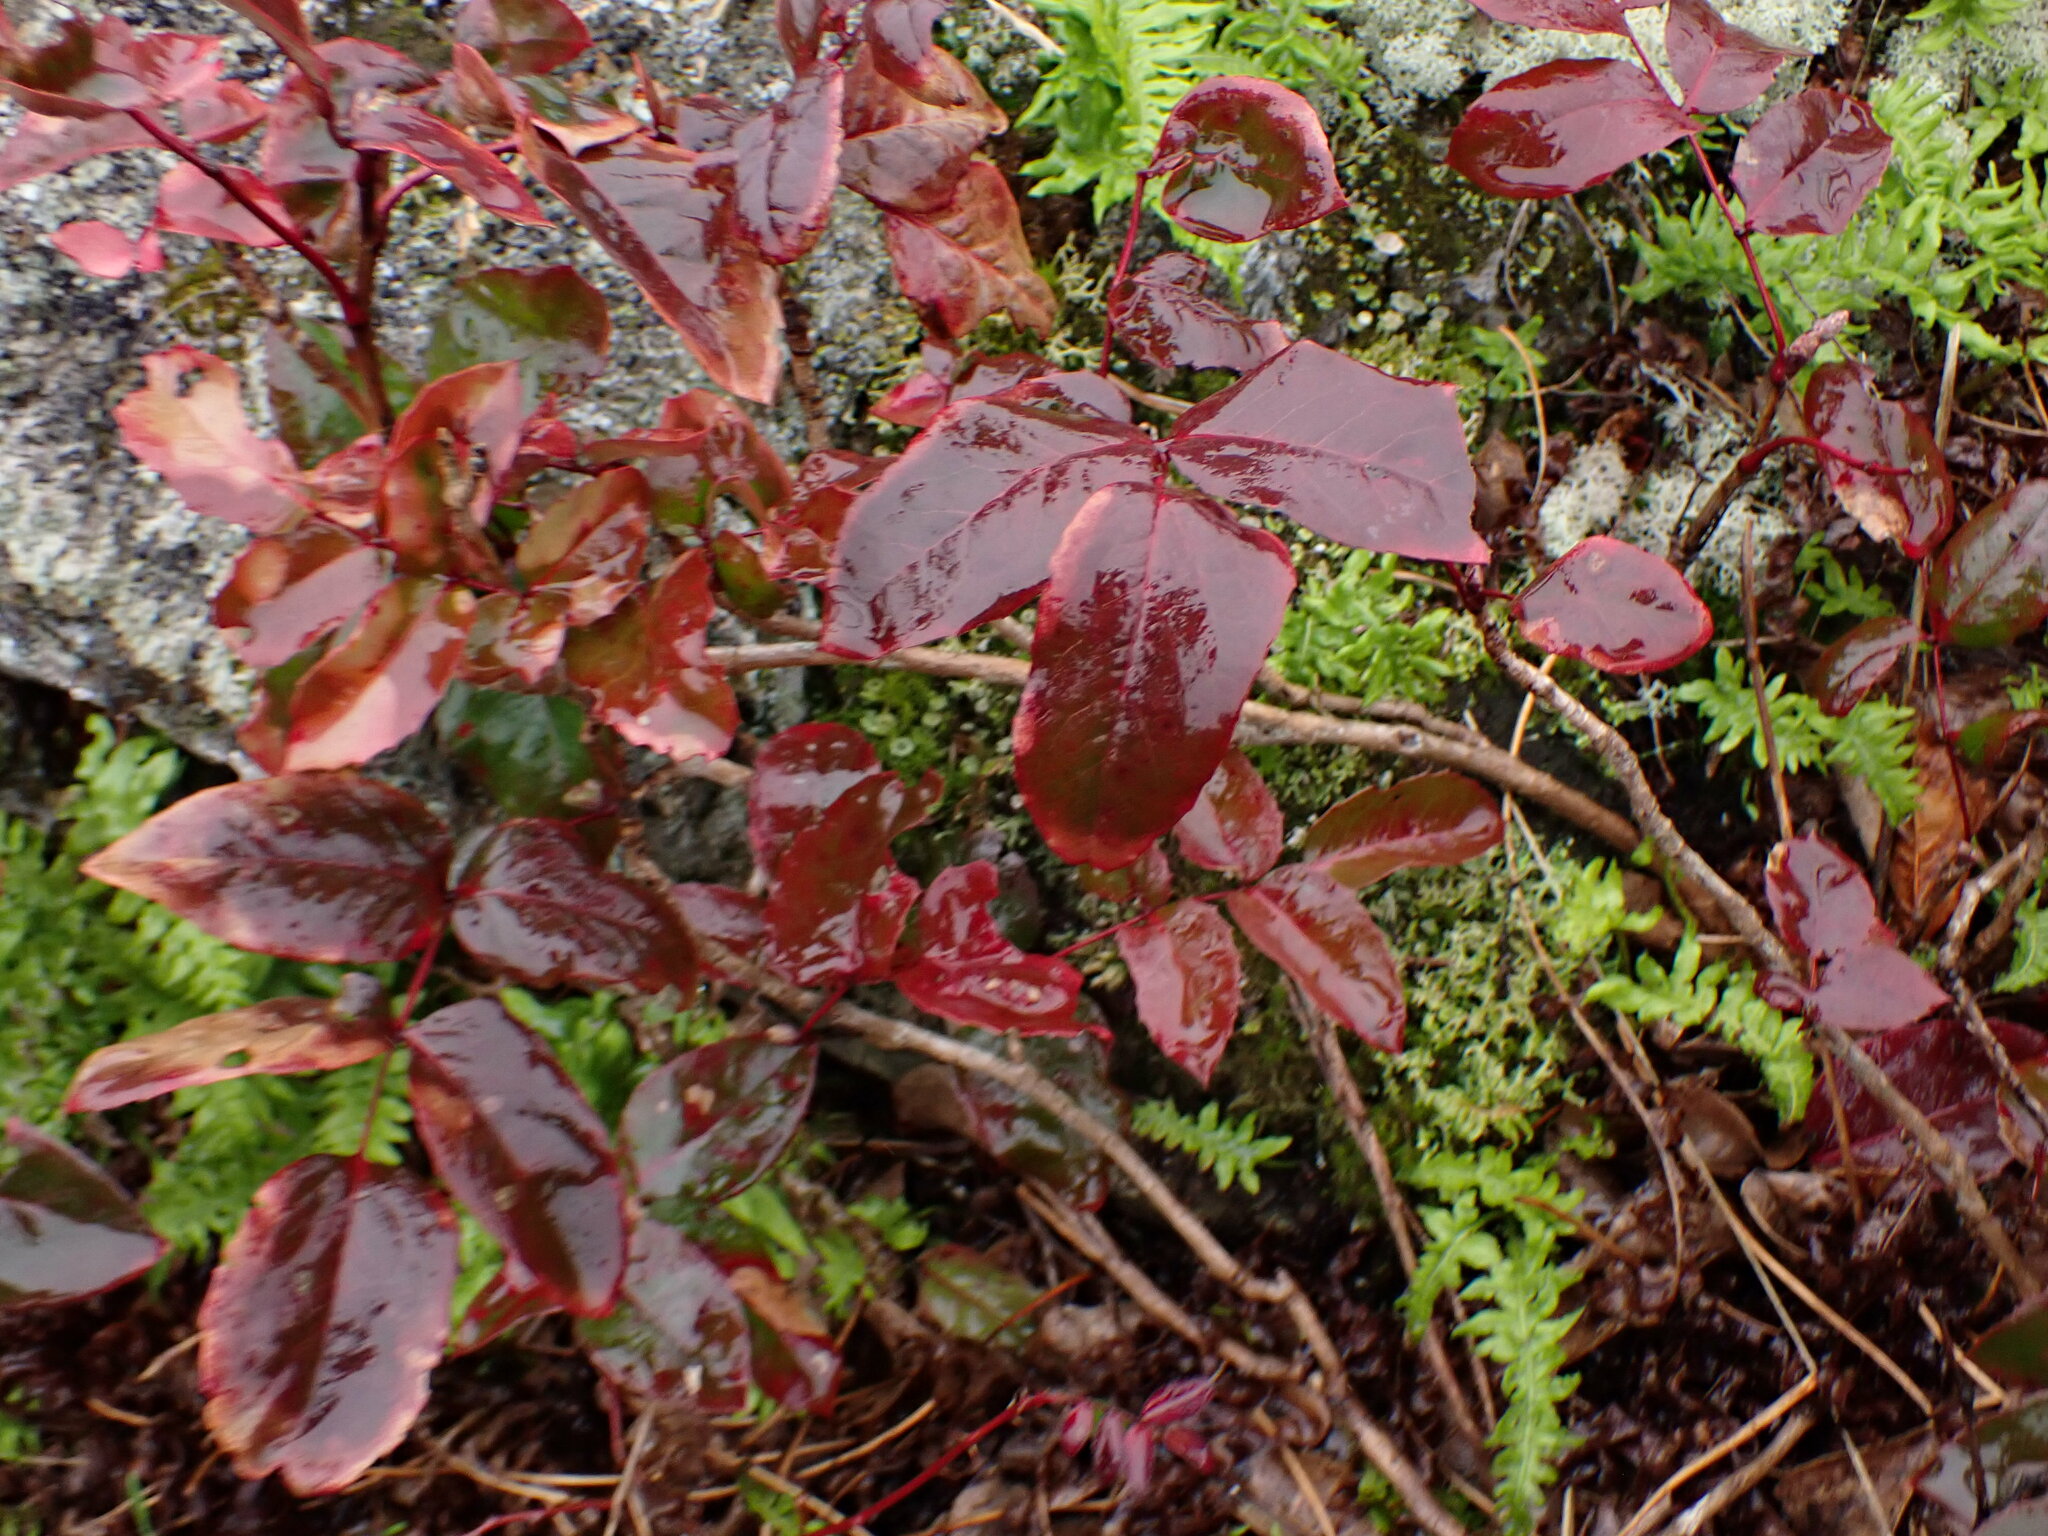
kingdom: Plantae
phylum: Tracheophyta
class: Magnoliopsida
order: Ranunculales
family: Berberidaceae
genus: Mahonia
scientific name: Mahonia aquifolium
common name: Oregon-grape
